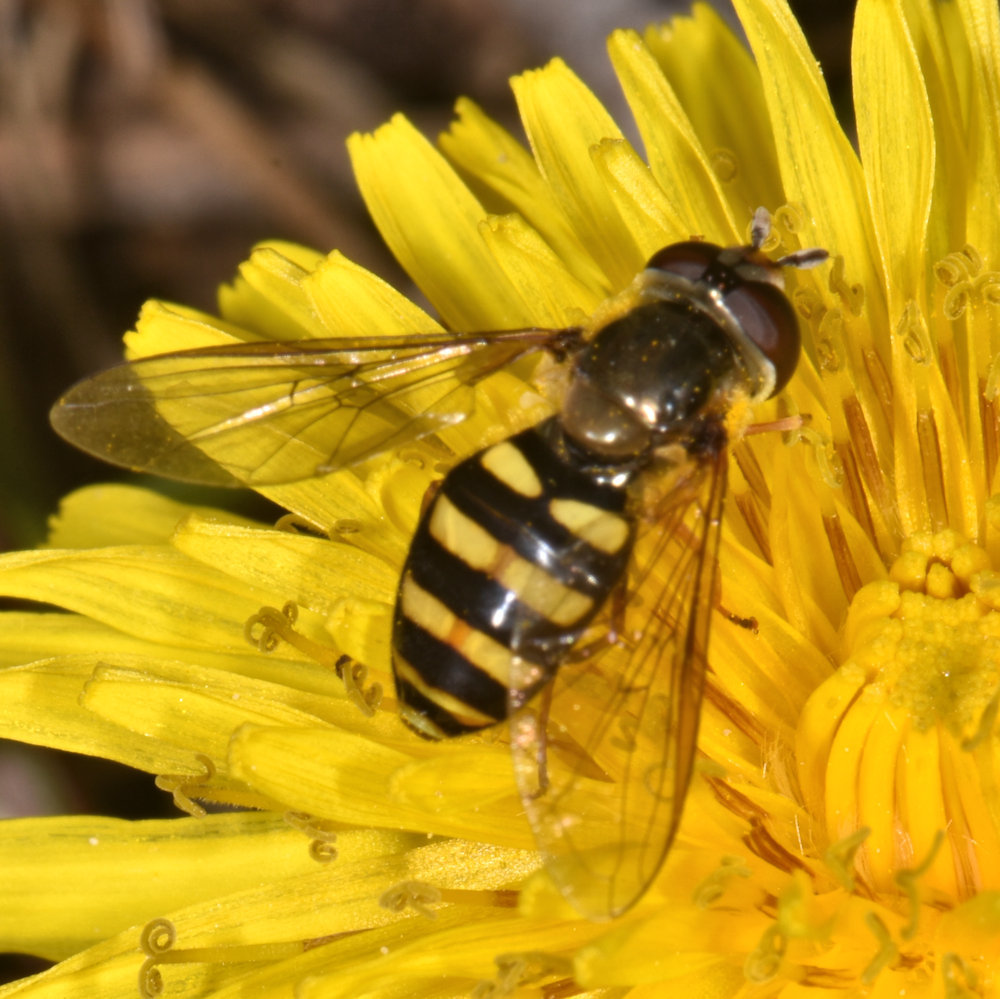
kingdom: Animalia
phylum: Arthropoda
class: Insecta
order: Diptera
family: Syrphidae
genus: Eupeodes
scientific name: Eupeodes
